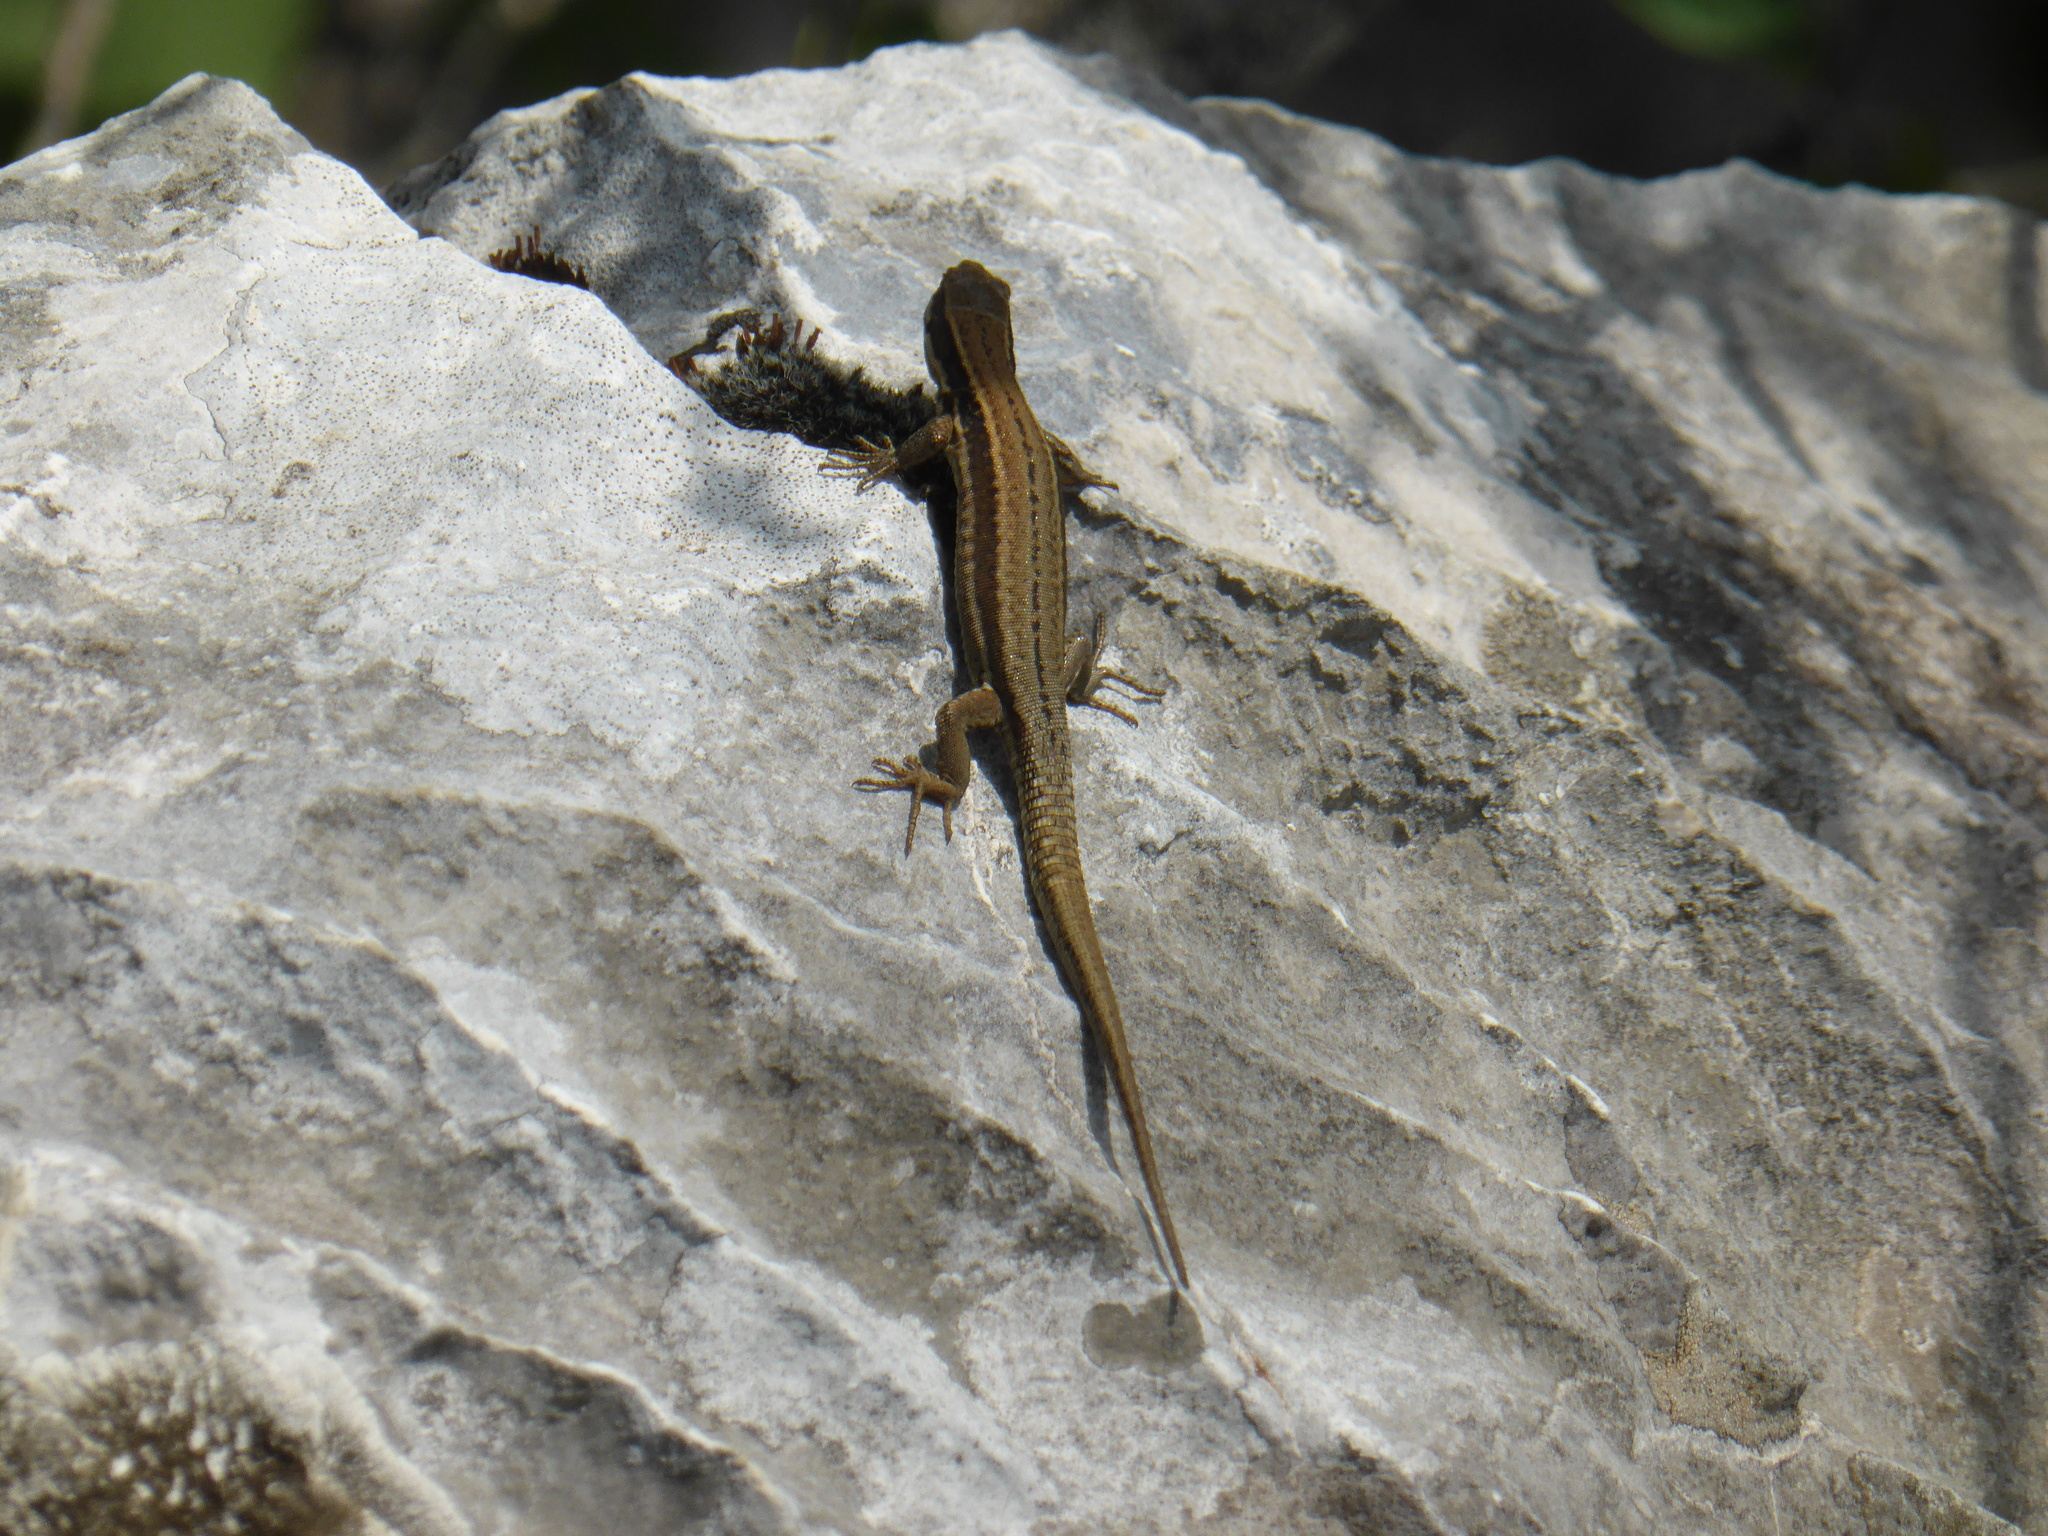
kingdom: Animalia
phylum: Chordata
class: Squamata
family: Lacertidae
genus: Podarcis
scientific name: Podarcis muralis
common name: Common wall lizard
